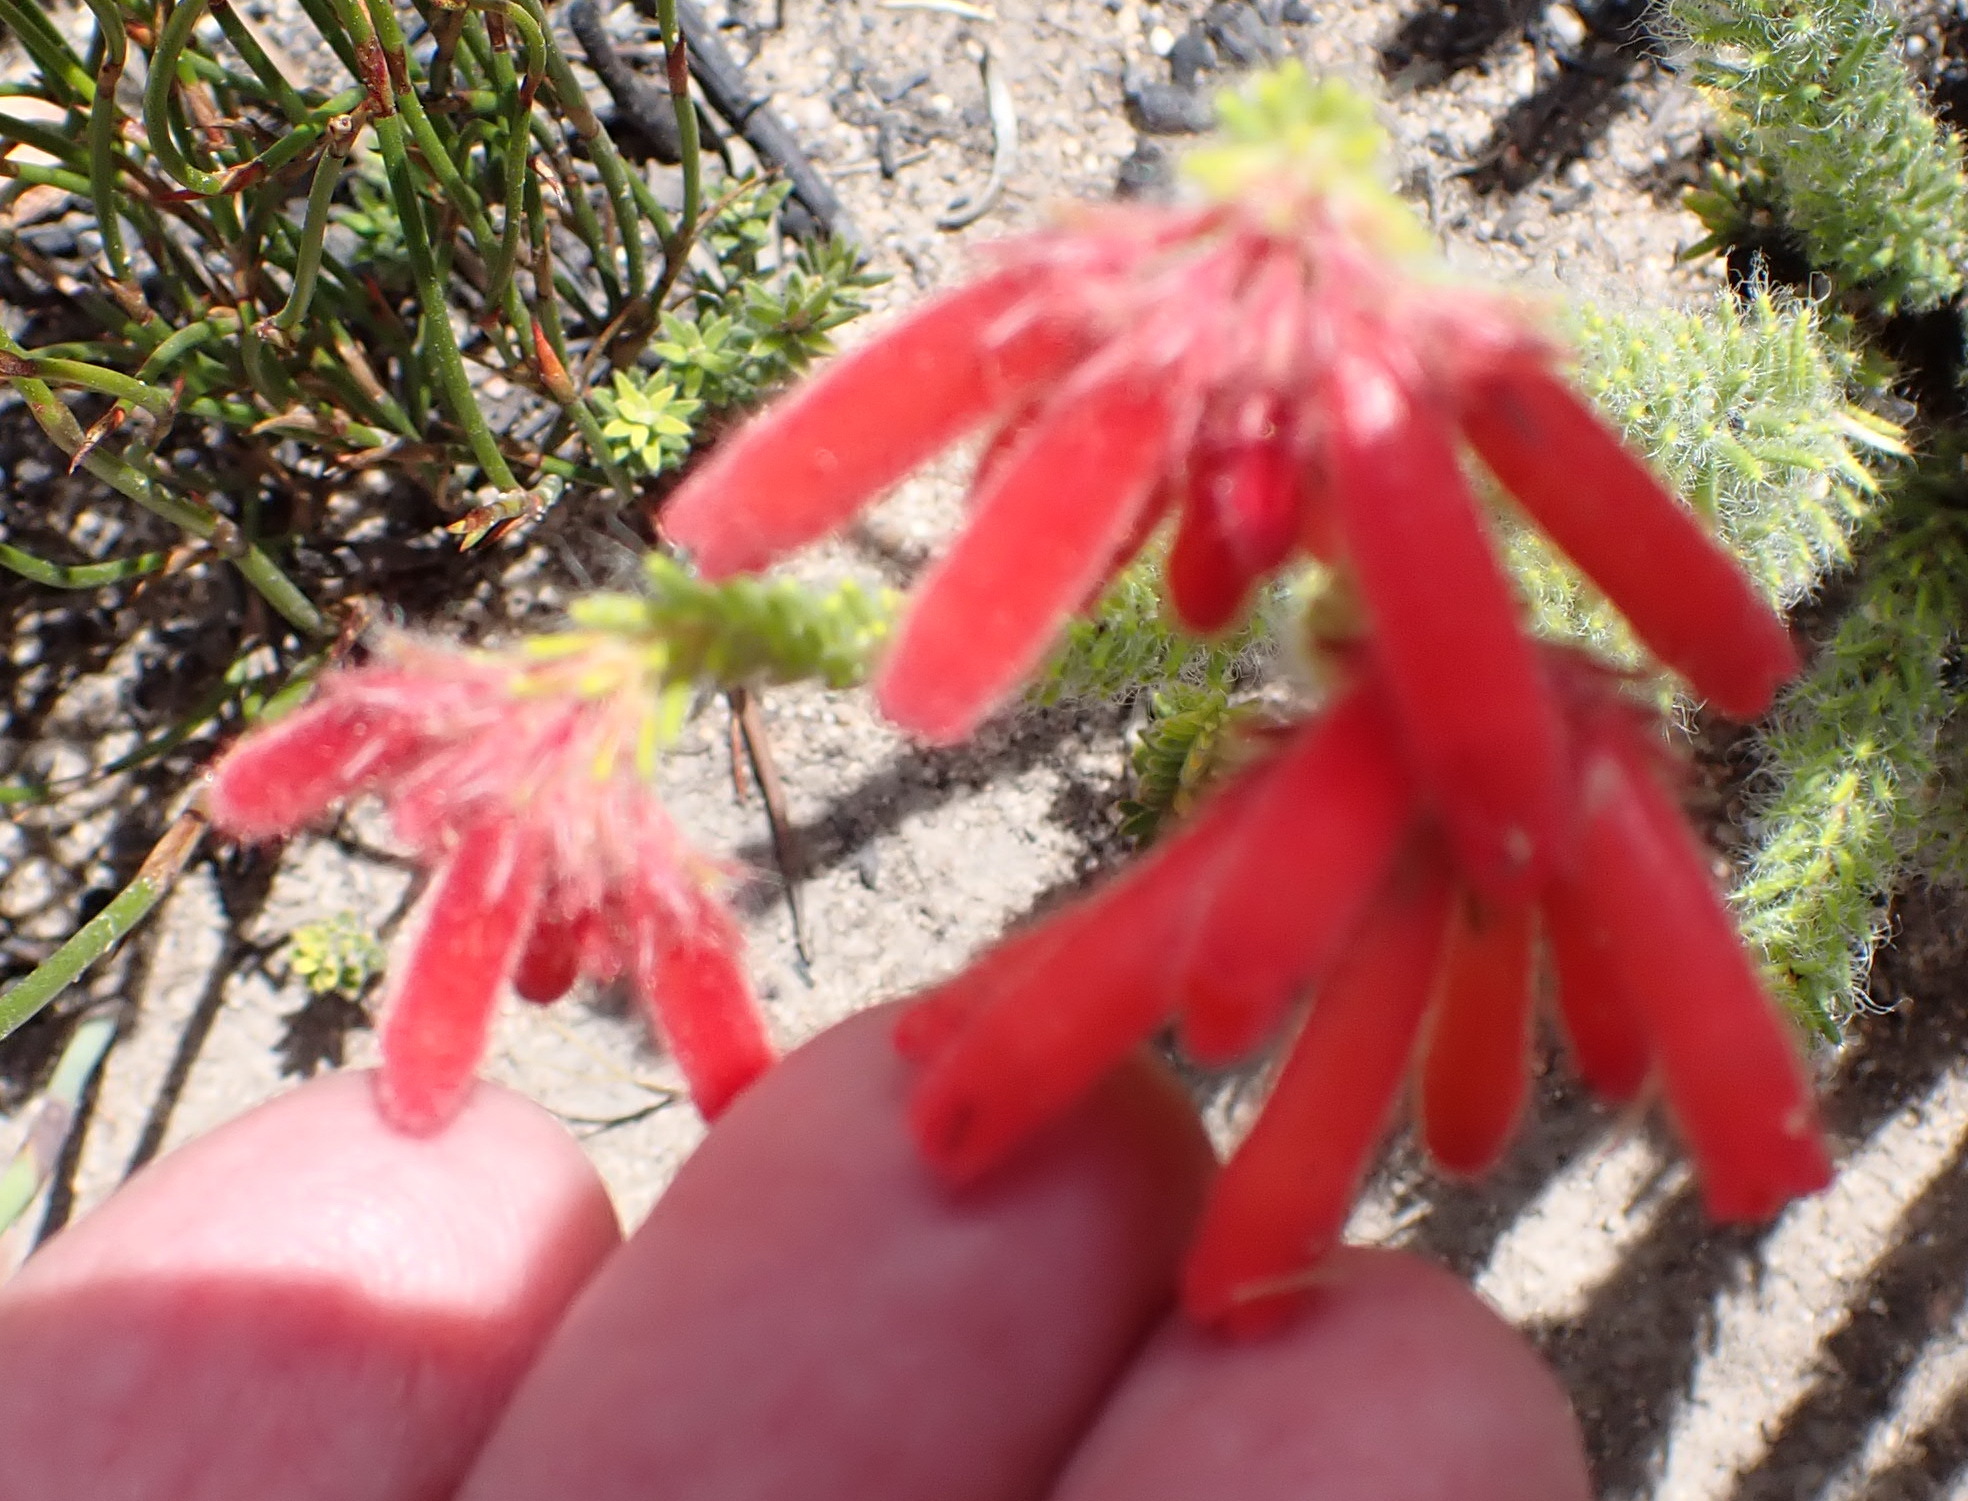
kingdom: Plantae
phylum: Tracheophyta
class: Magnoliopsida
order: Ericales
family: Ericaceae
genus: Erica
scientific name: Erica cerinthoides
